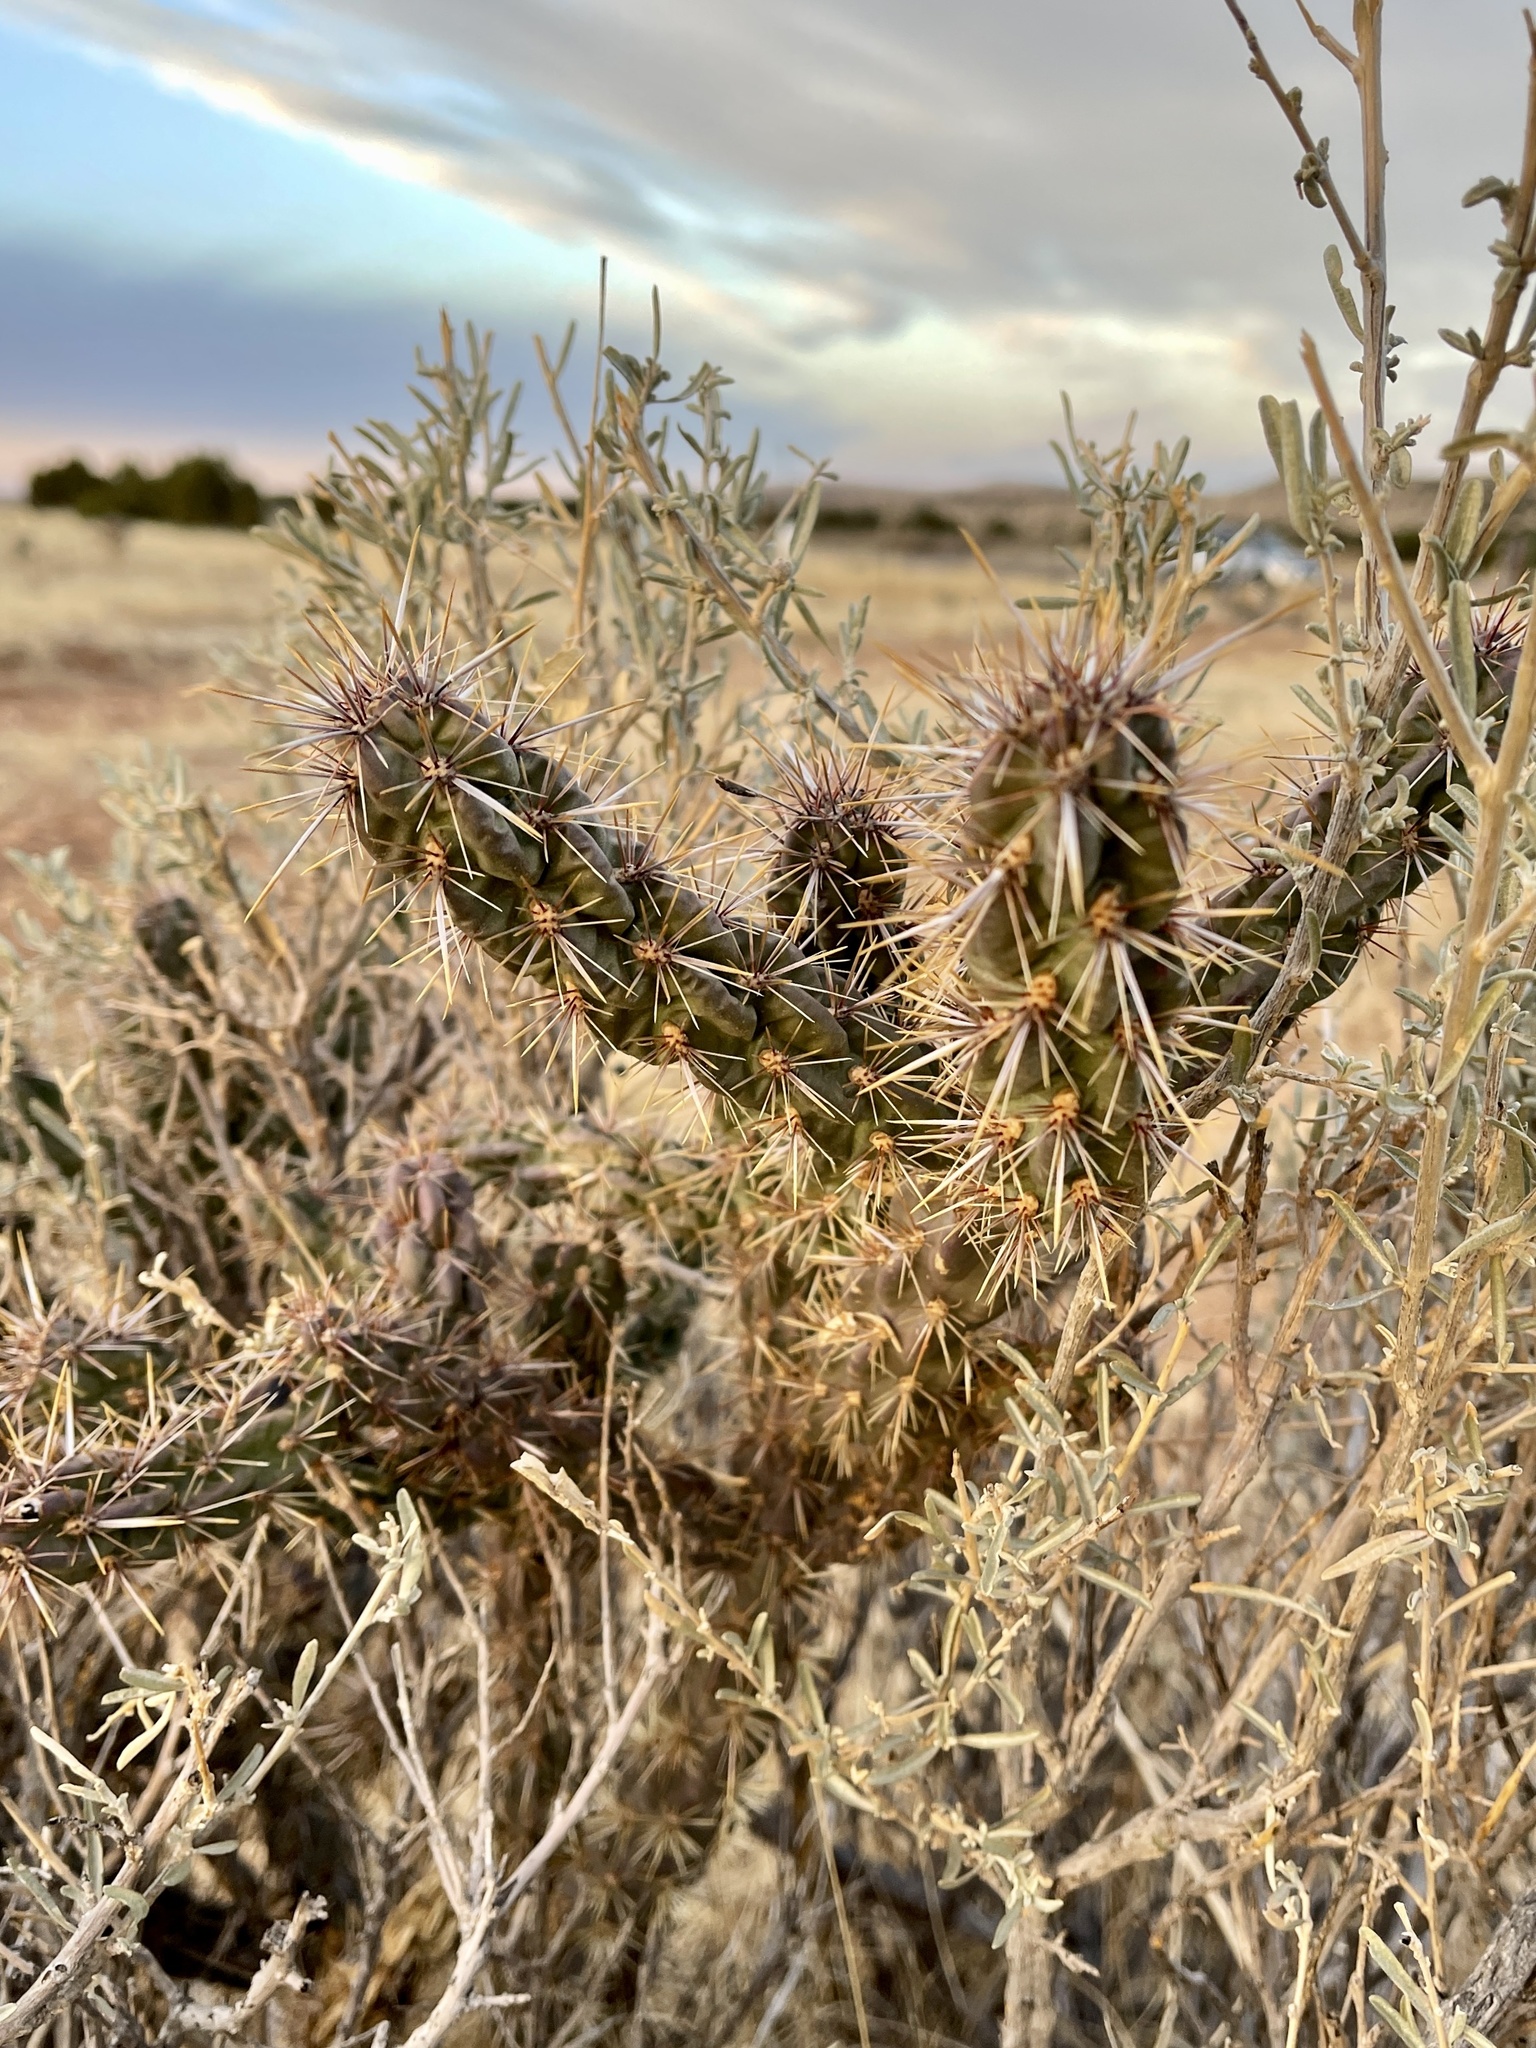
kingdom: Plantae
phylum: Tracheophyta
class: Magnoliopsida
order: Caryophyllales
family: Cactaceae
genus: Cylindropuntia
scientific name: Cylindropuntia imbricata
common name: Candelabrum cactus
